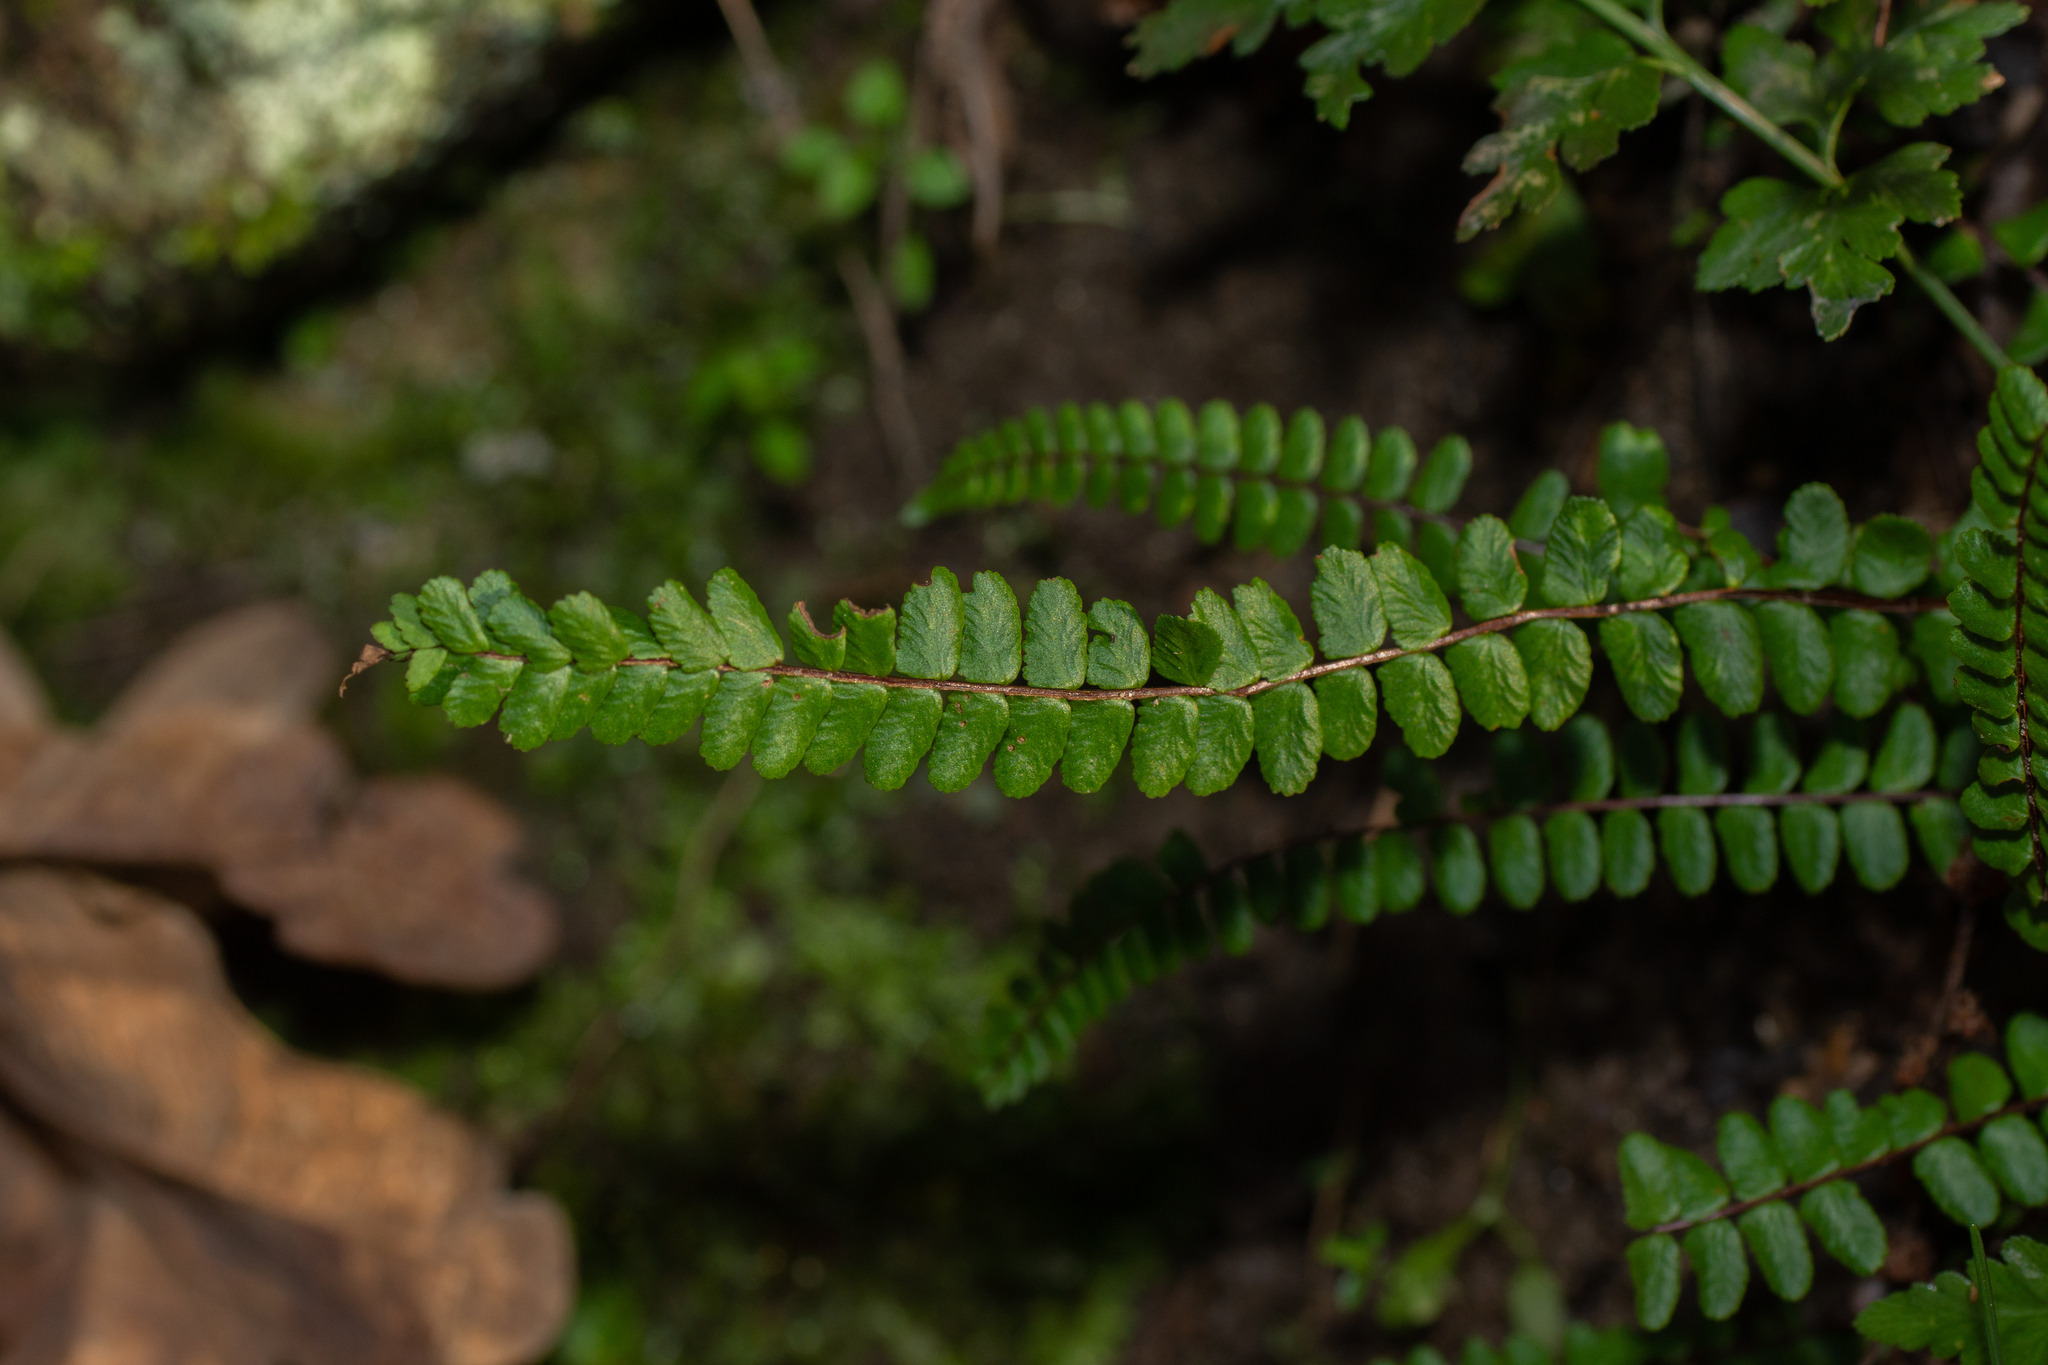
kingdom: Plantae
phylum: Tracheophyta
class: Polypodiopsida
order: Polypodiales
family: Aspleniaceae
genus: Asplenium
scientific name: Asplenium trichomanes
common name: Maidenhair spleenwort
